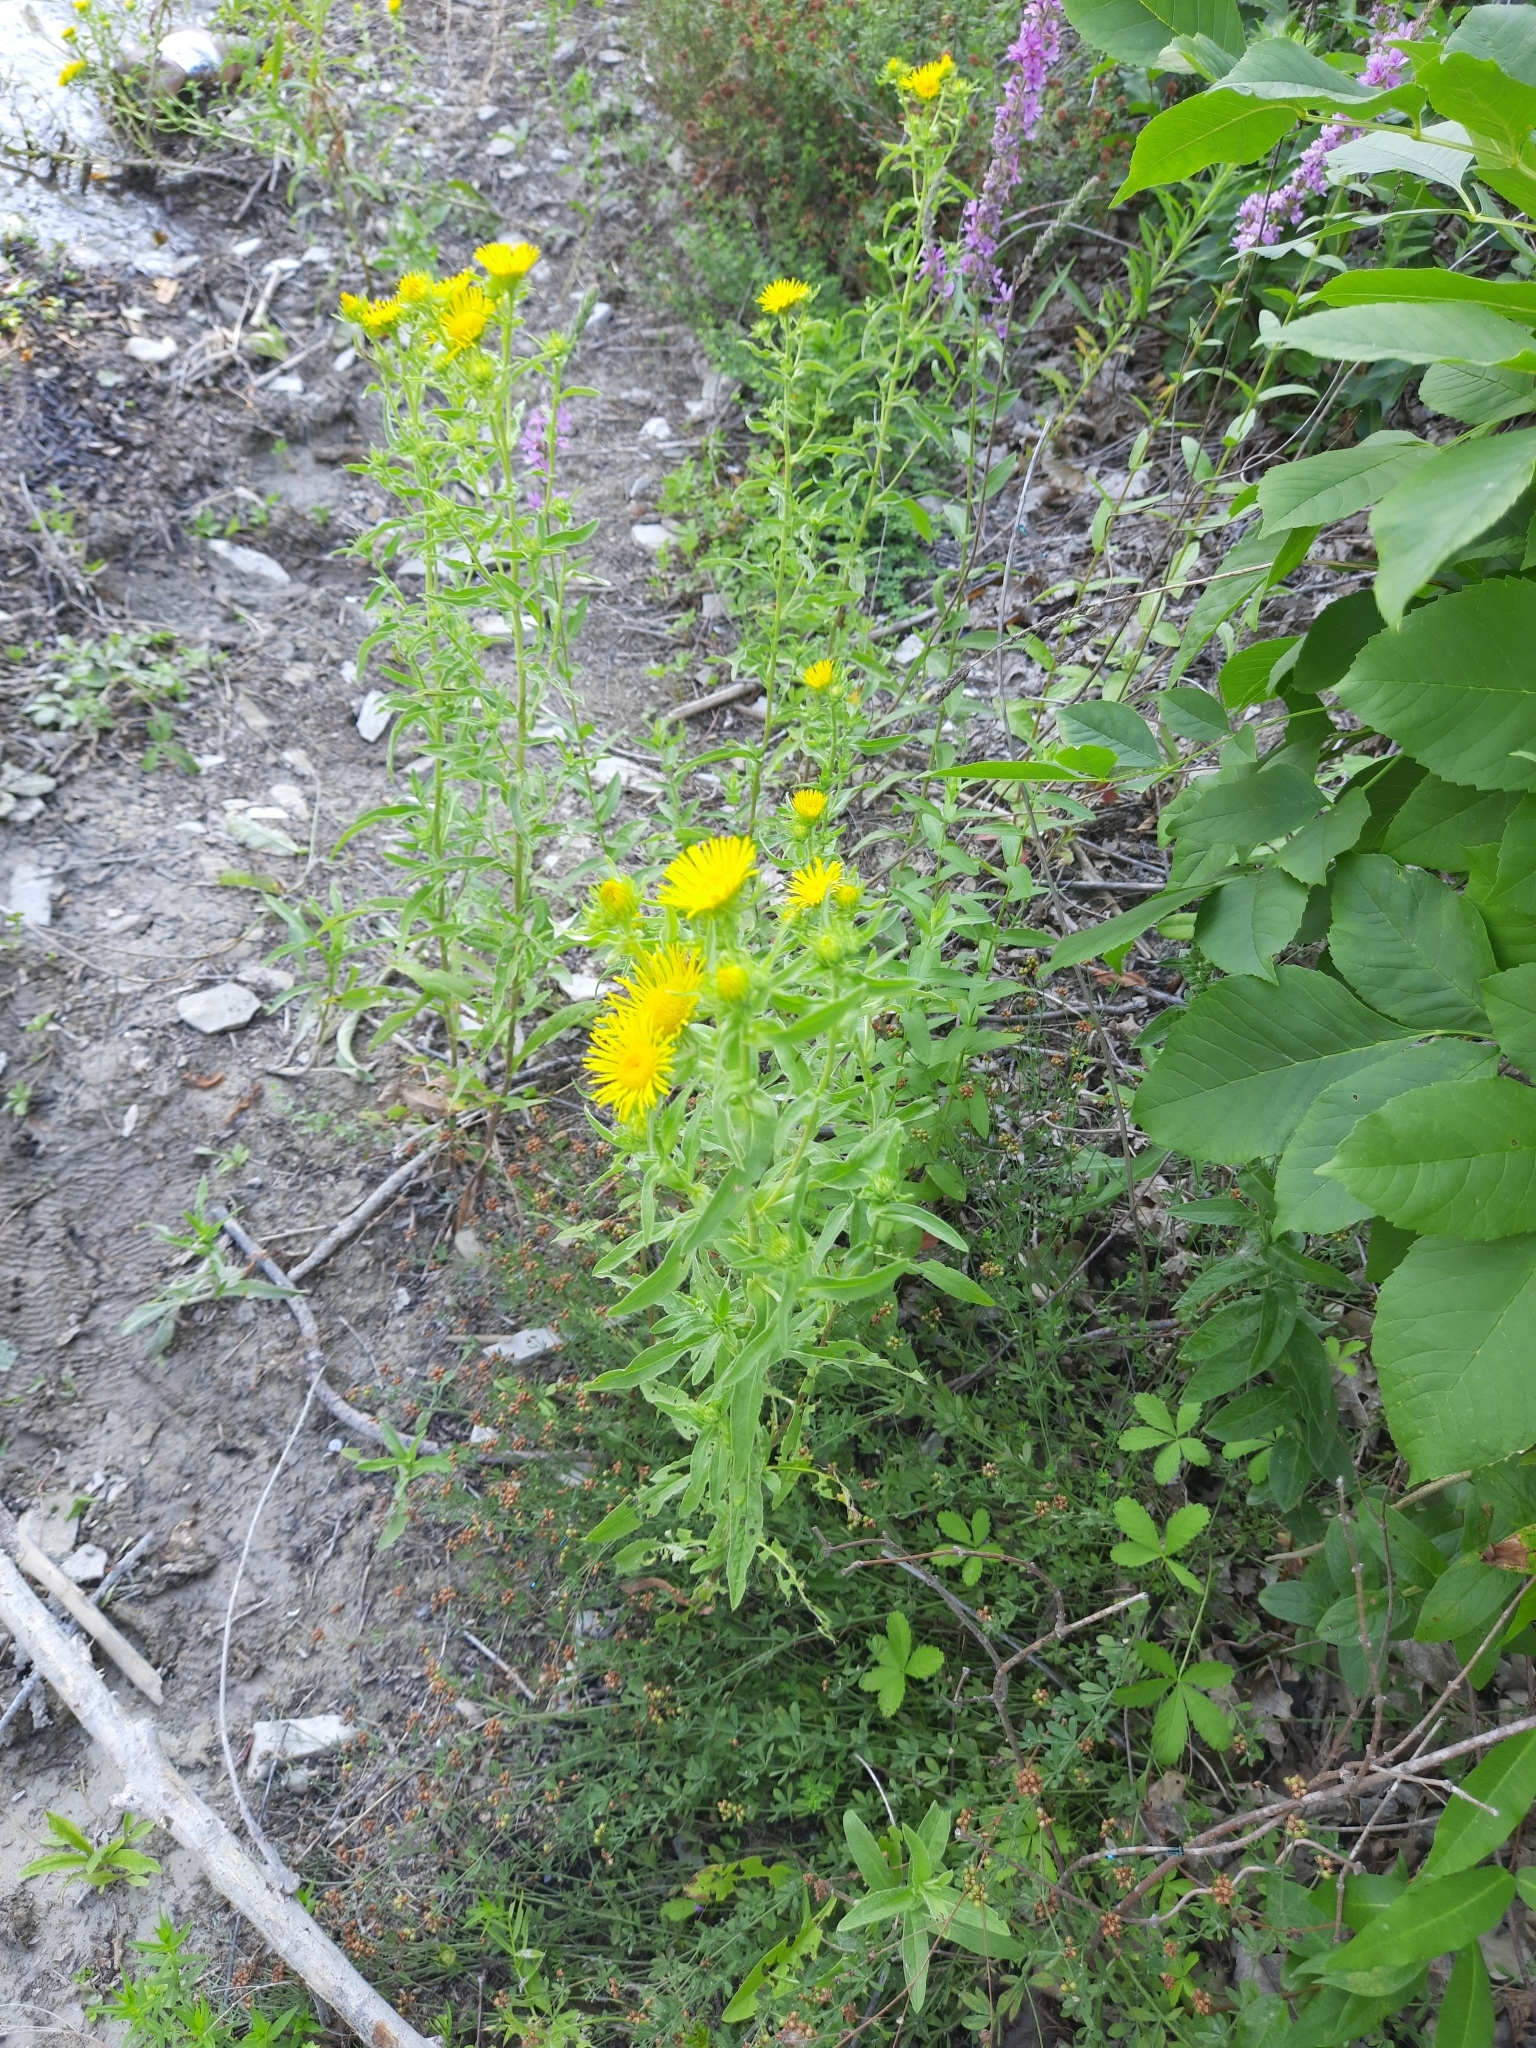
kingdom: Plantae
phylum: Tracheophyta
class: Magnoliopsida
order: Asterales
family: Asteraceae
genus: Pentanema
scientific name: Pentanema britannicum
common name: British elecampane
